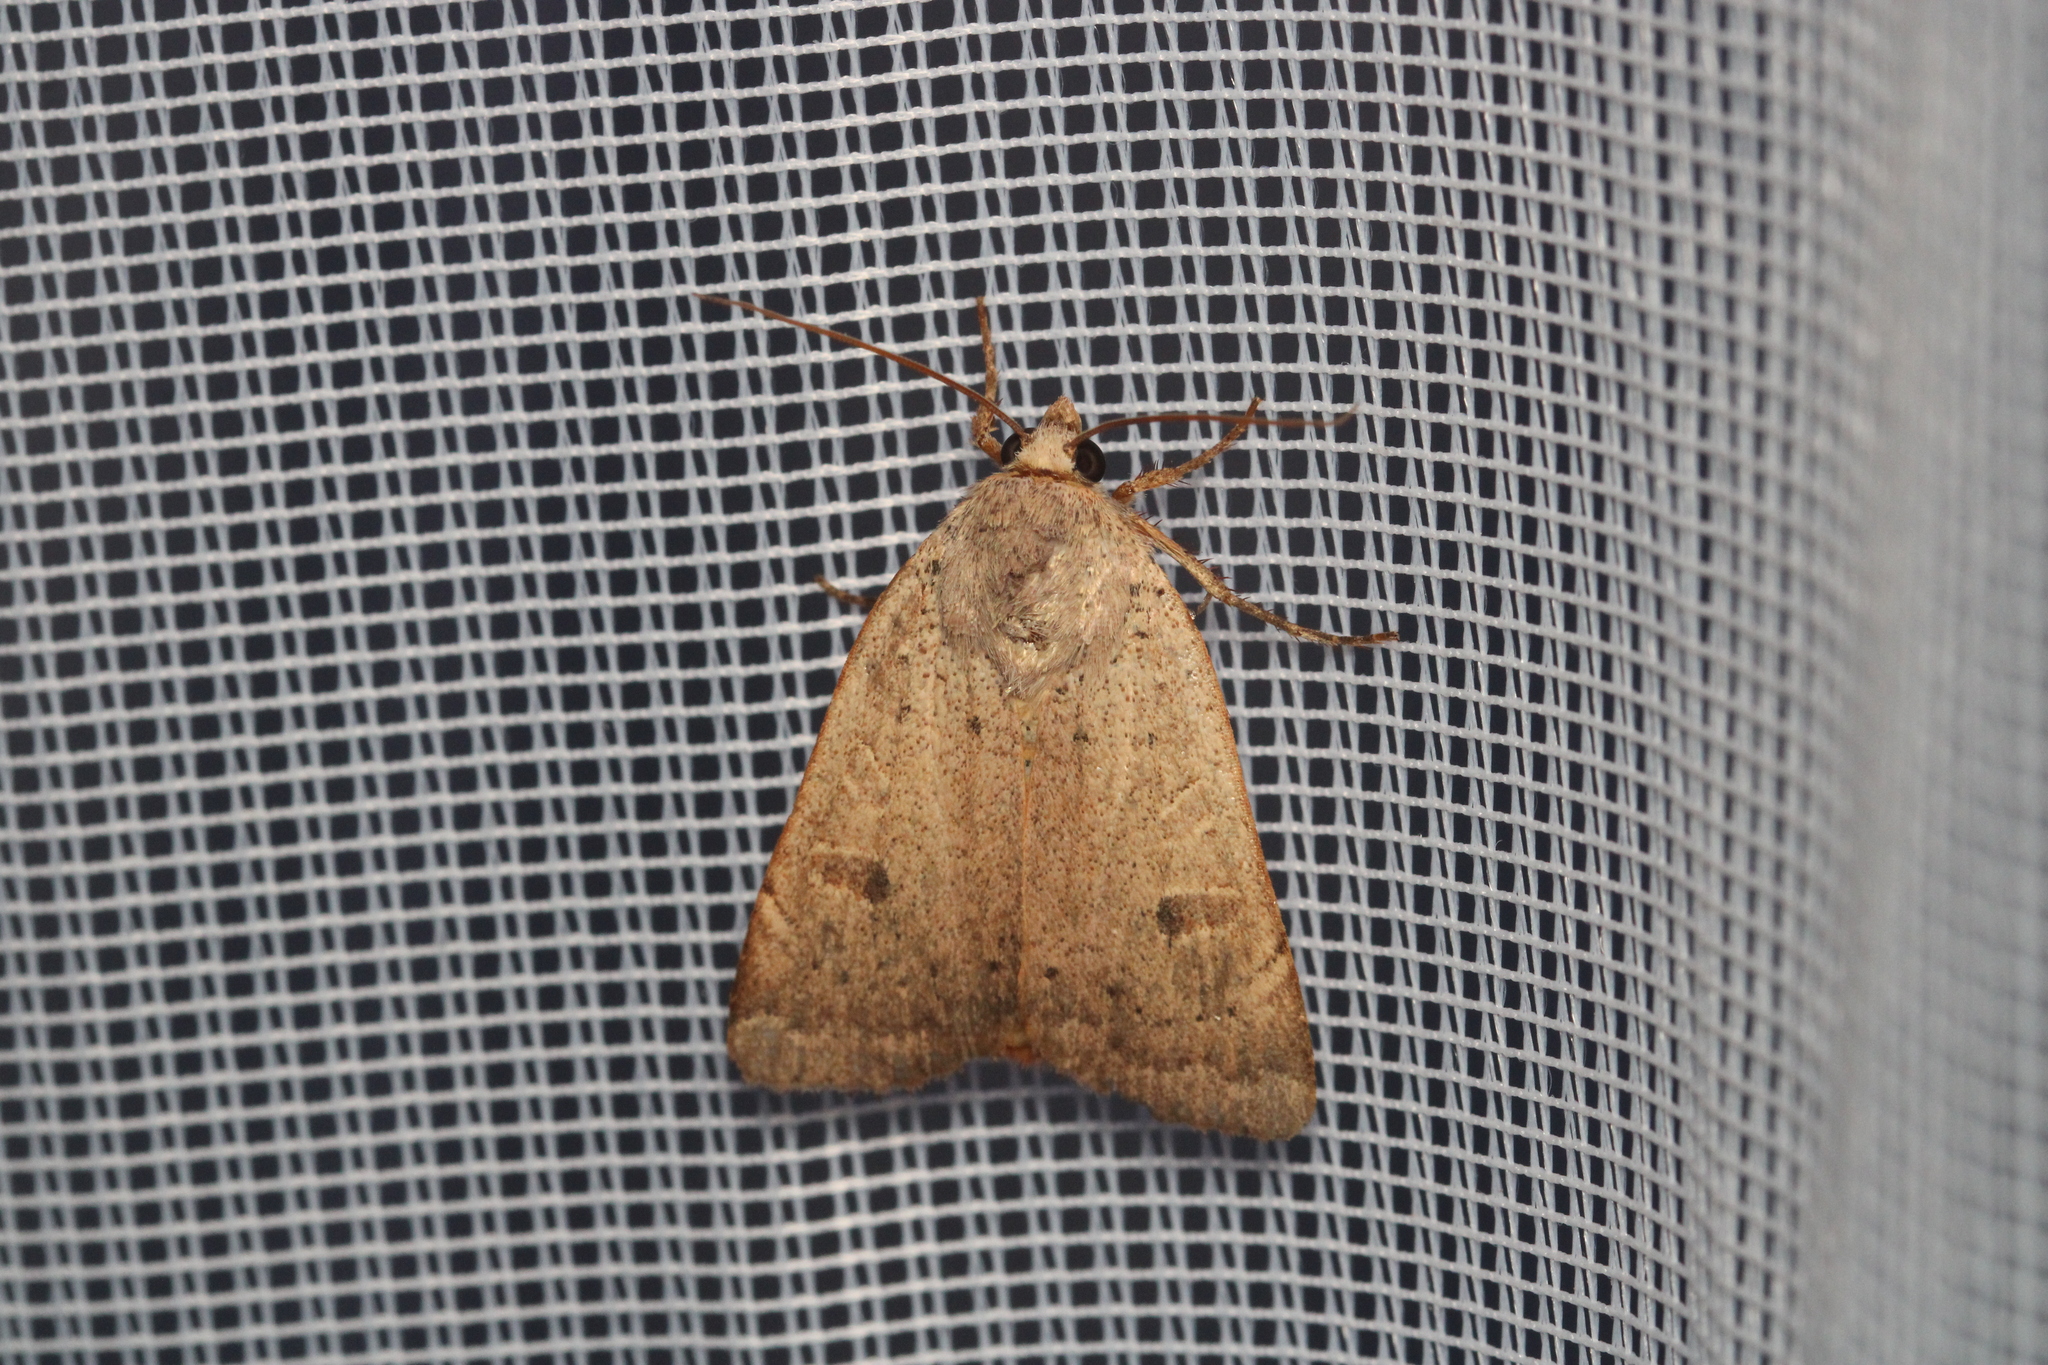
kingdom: Animalia
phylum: Arthropoda
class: Insecta
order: Lepidoptera
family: Noctuidae
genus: Noctua
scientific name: Noctua comes
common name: Lesser yellow underwing
